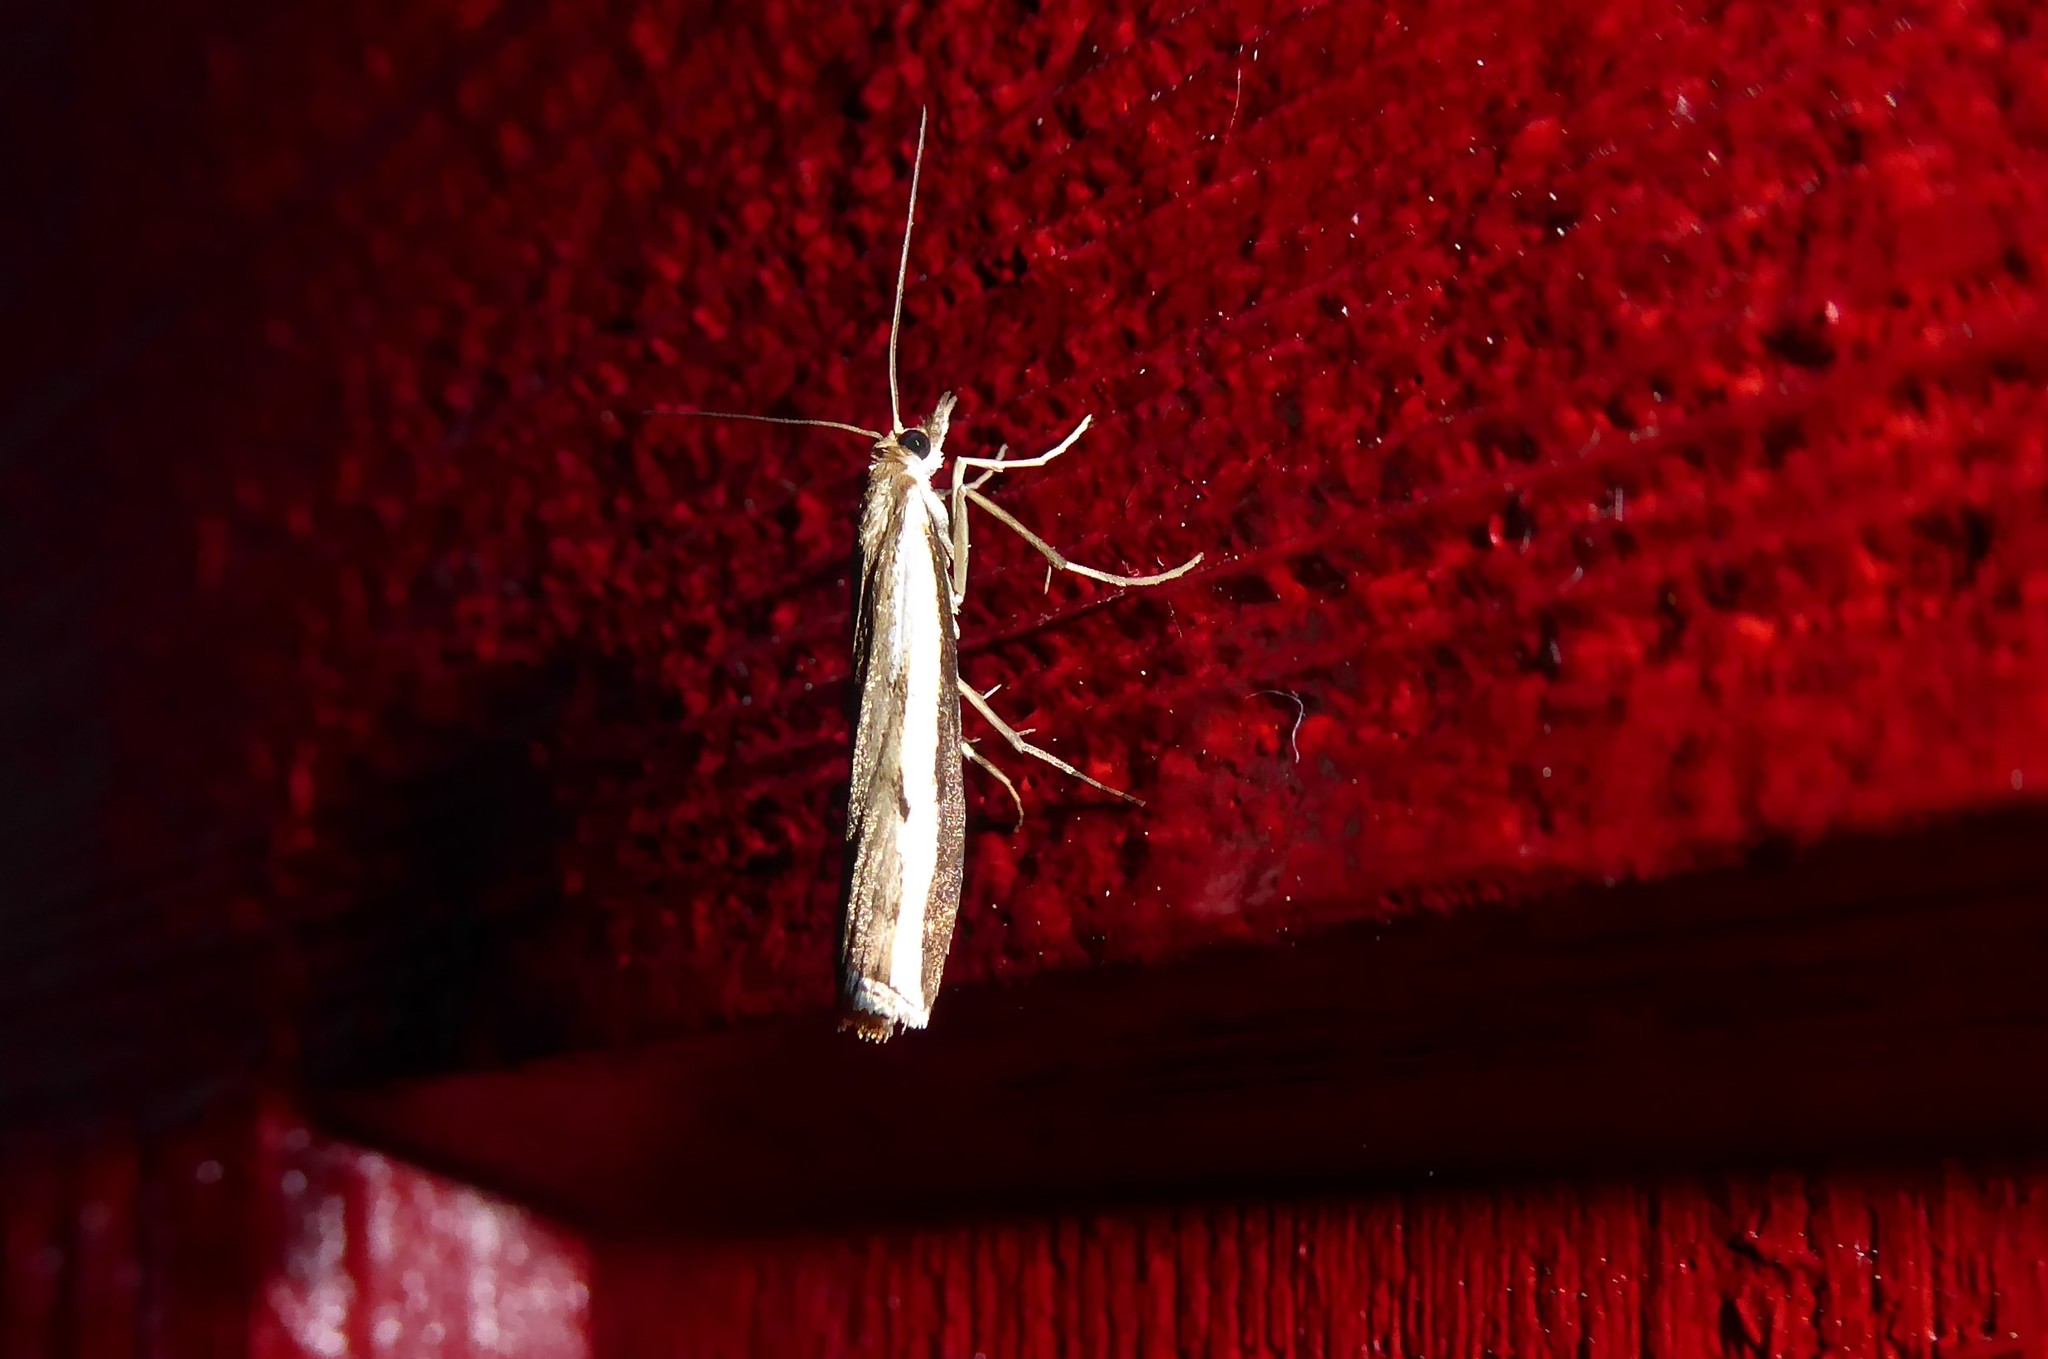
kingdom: Animalia
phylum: Arthropoda
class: Insecta
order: Lepidoptera
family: Crambidae
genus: Orocrambus
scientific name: Orocrambus flexuosellus
